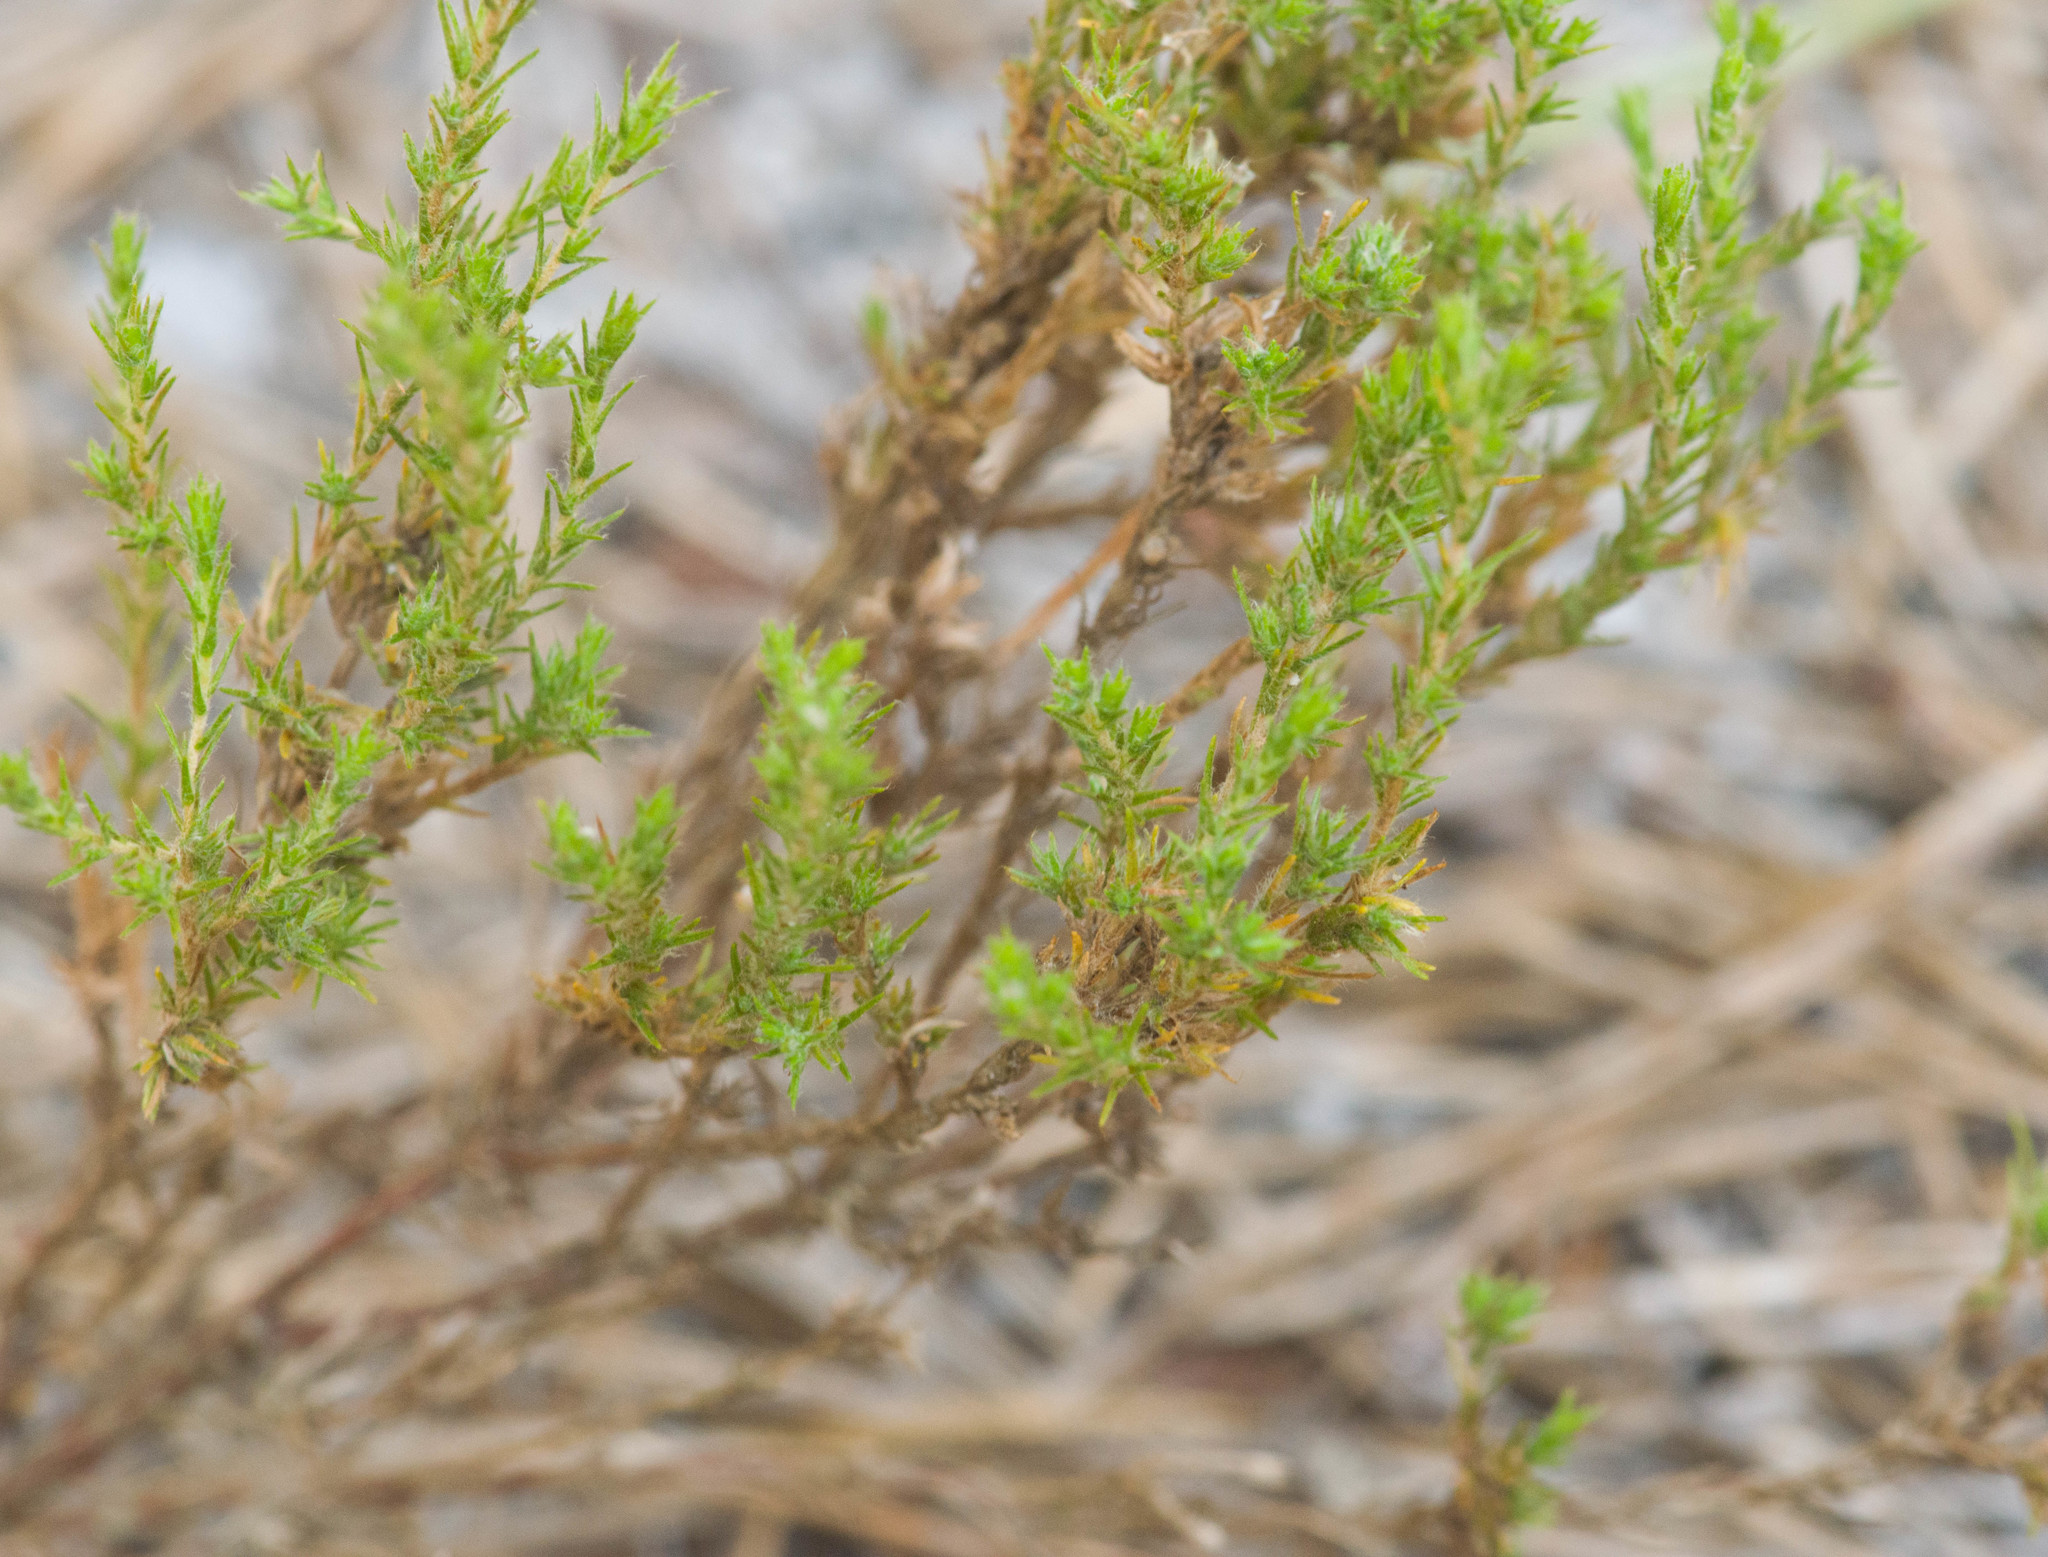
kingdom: Plantae
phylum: Tracheophyta
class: Magnoliopsida
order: Malvales
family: Cistaceae
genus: Hudsonia
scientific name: Hudsonia ericoides
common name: Golden-heather
